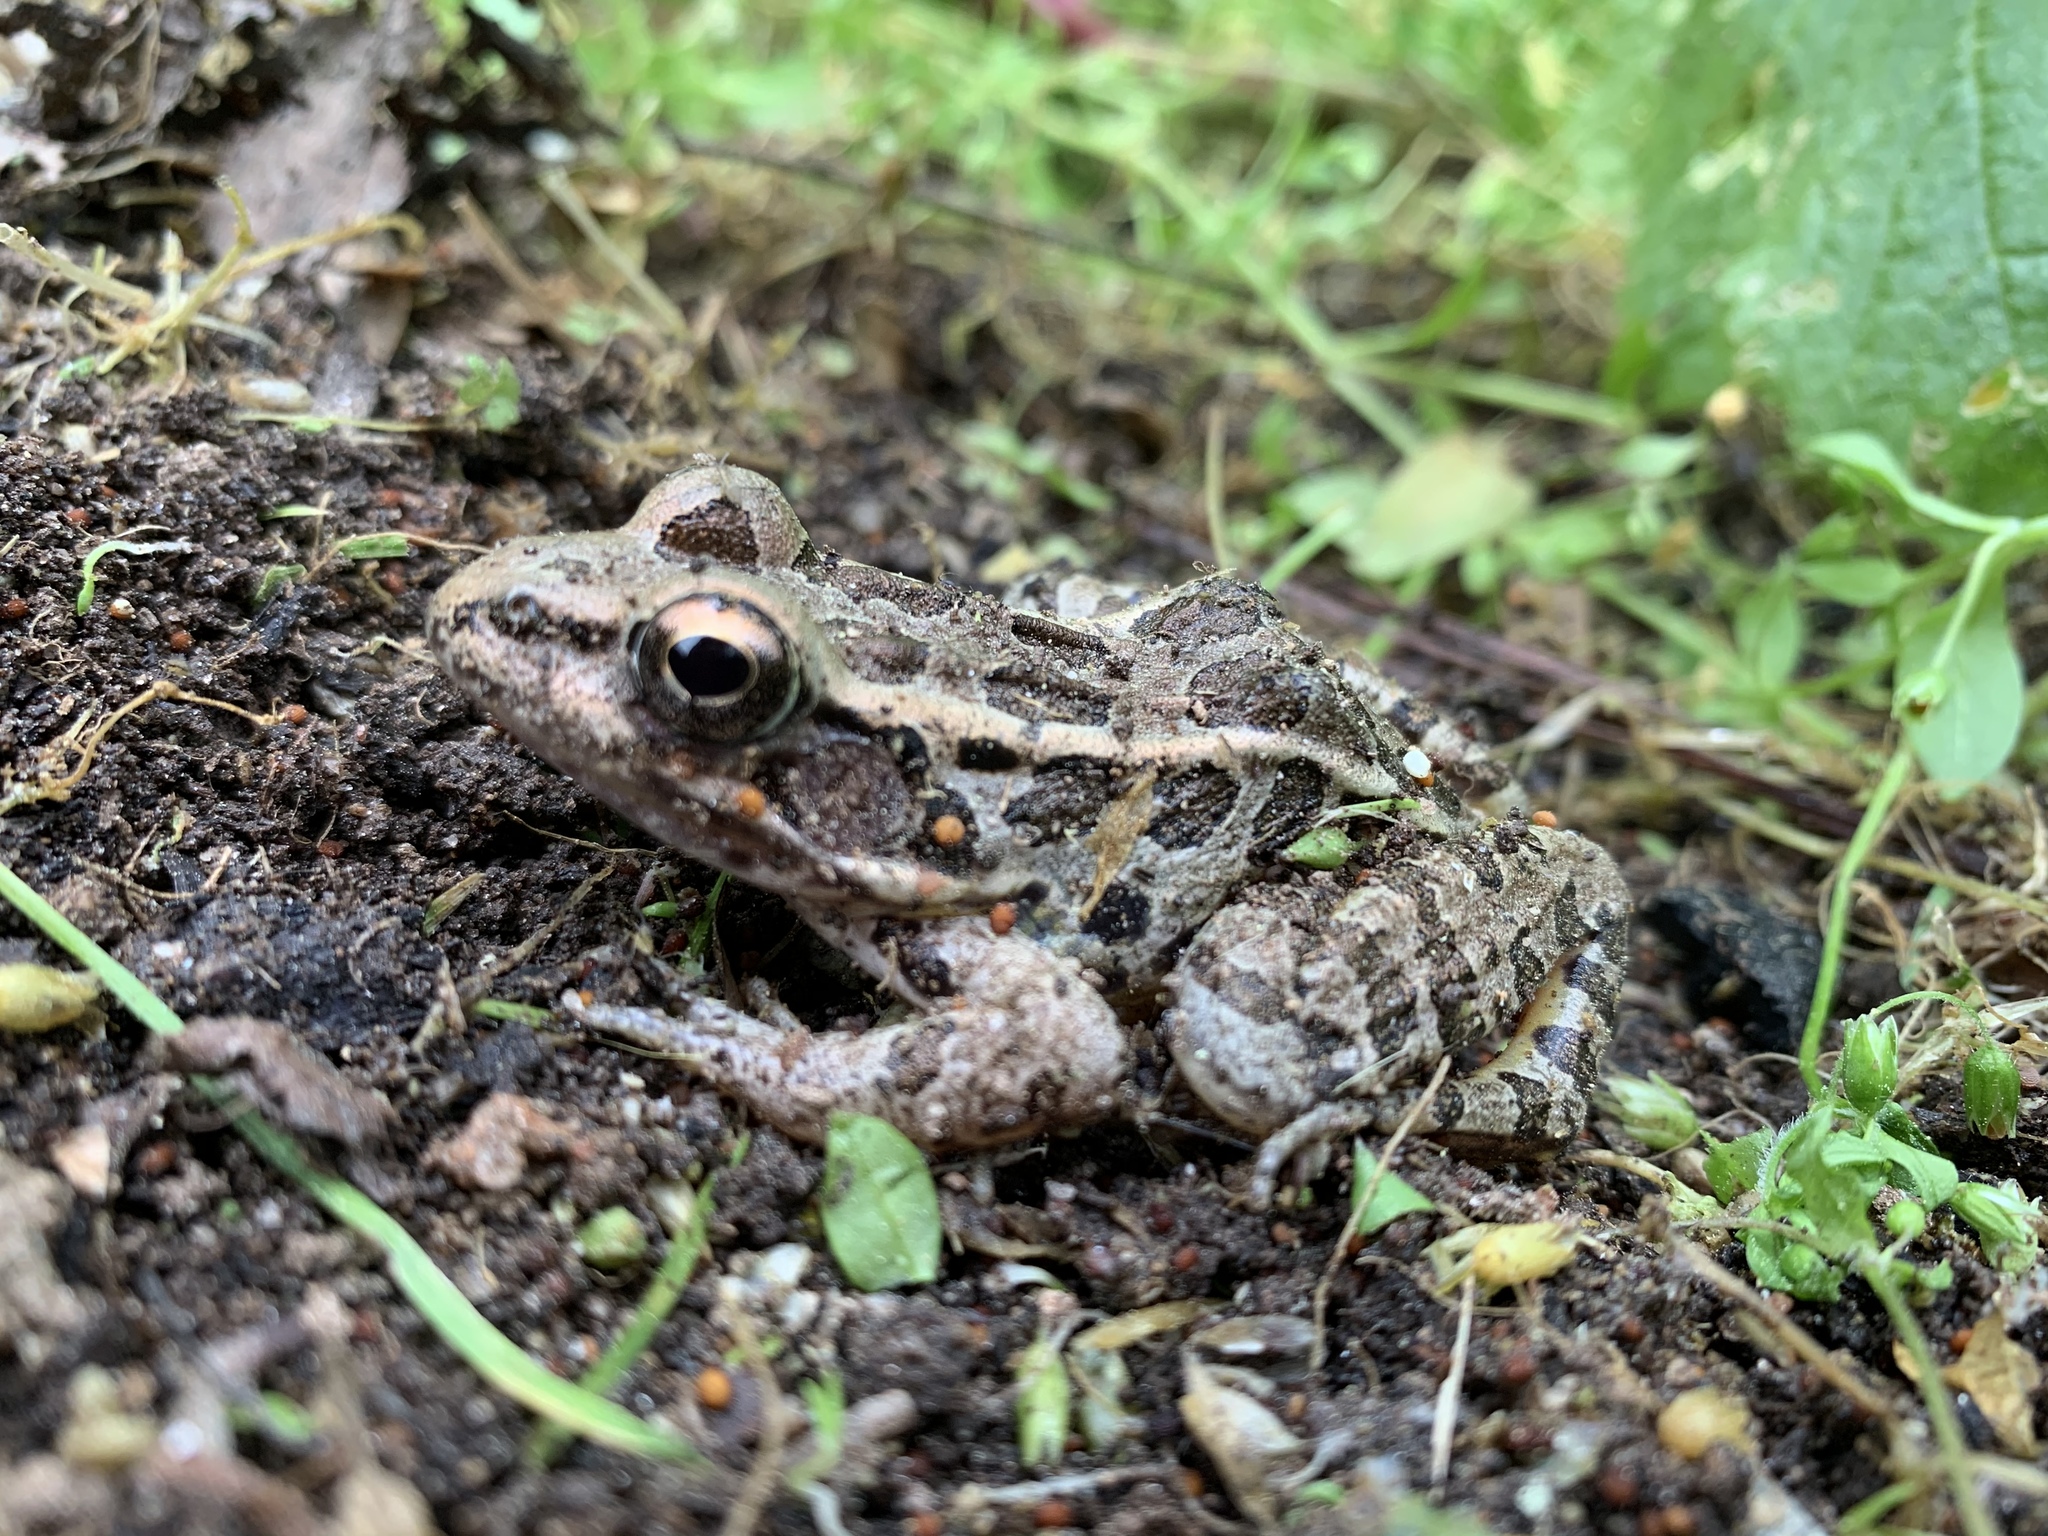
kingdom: Animalia
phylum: Chordata
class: Amphibia
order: Anura
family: Ranidae
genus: Lithobates
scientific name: Lithobates palustris
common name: Pickerel frog
